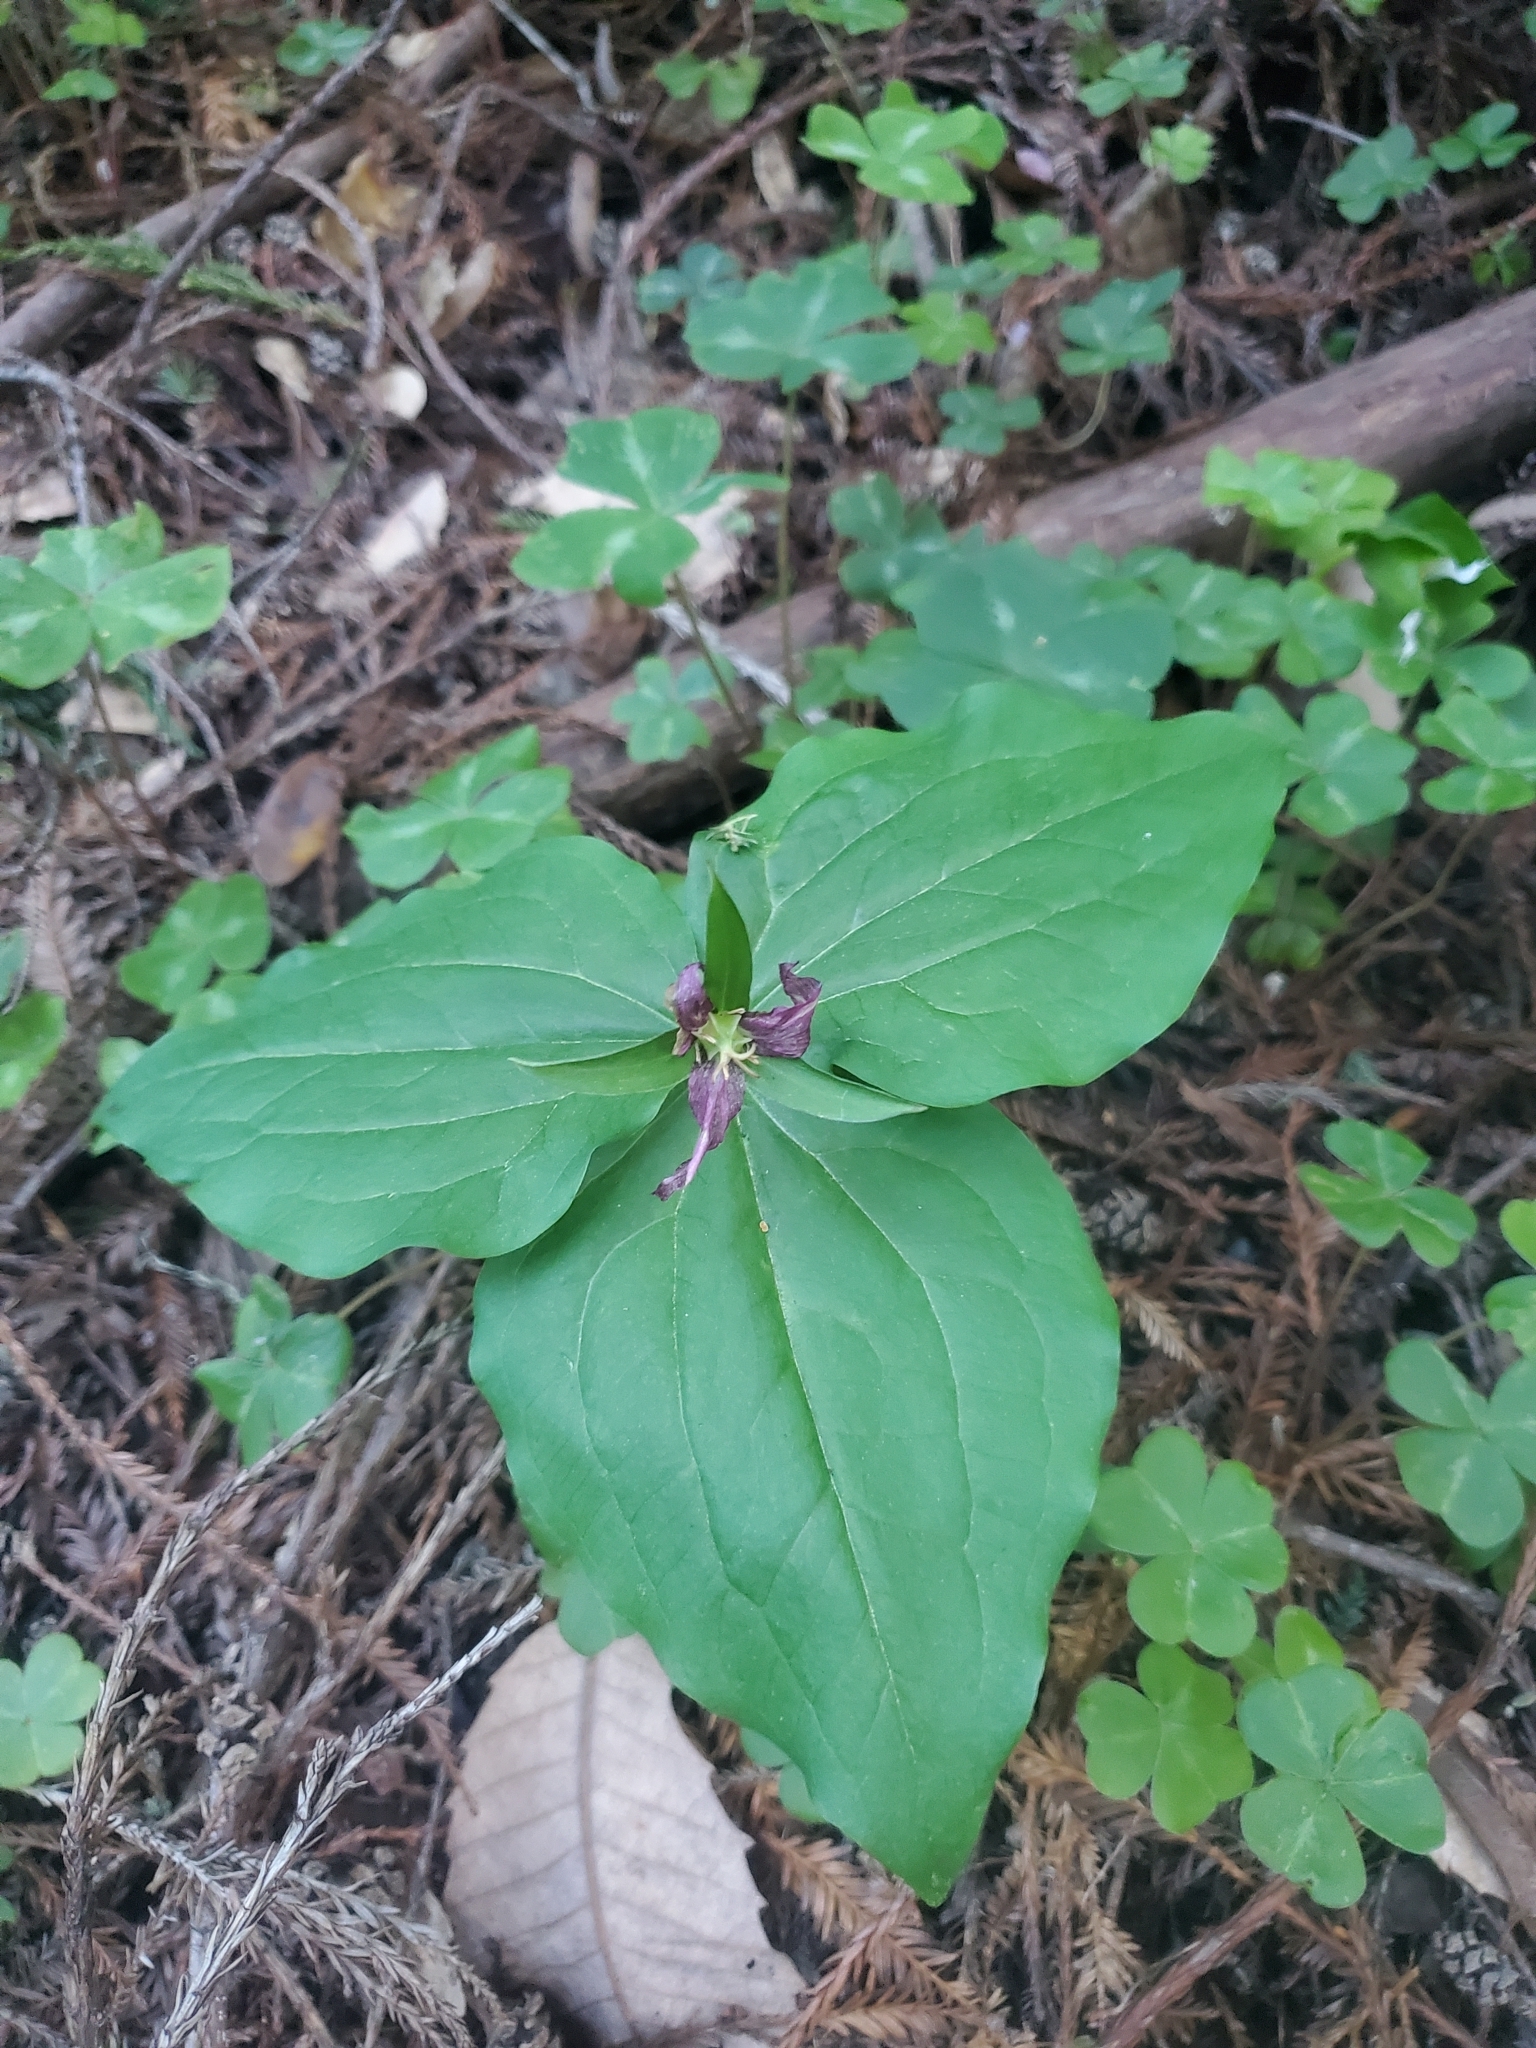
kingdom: Plantae
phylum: Tracheophyta
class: Liliopsida
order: Liliales
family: Melanthiaceae
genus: Trillium
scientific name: Trillium ovatum
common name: Pacific trillium
